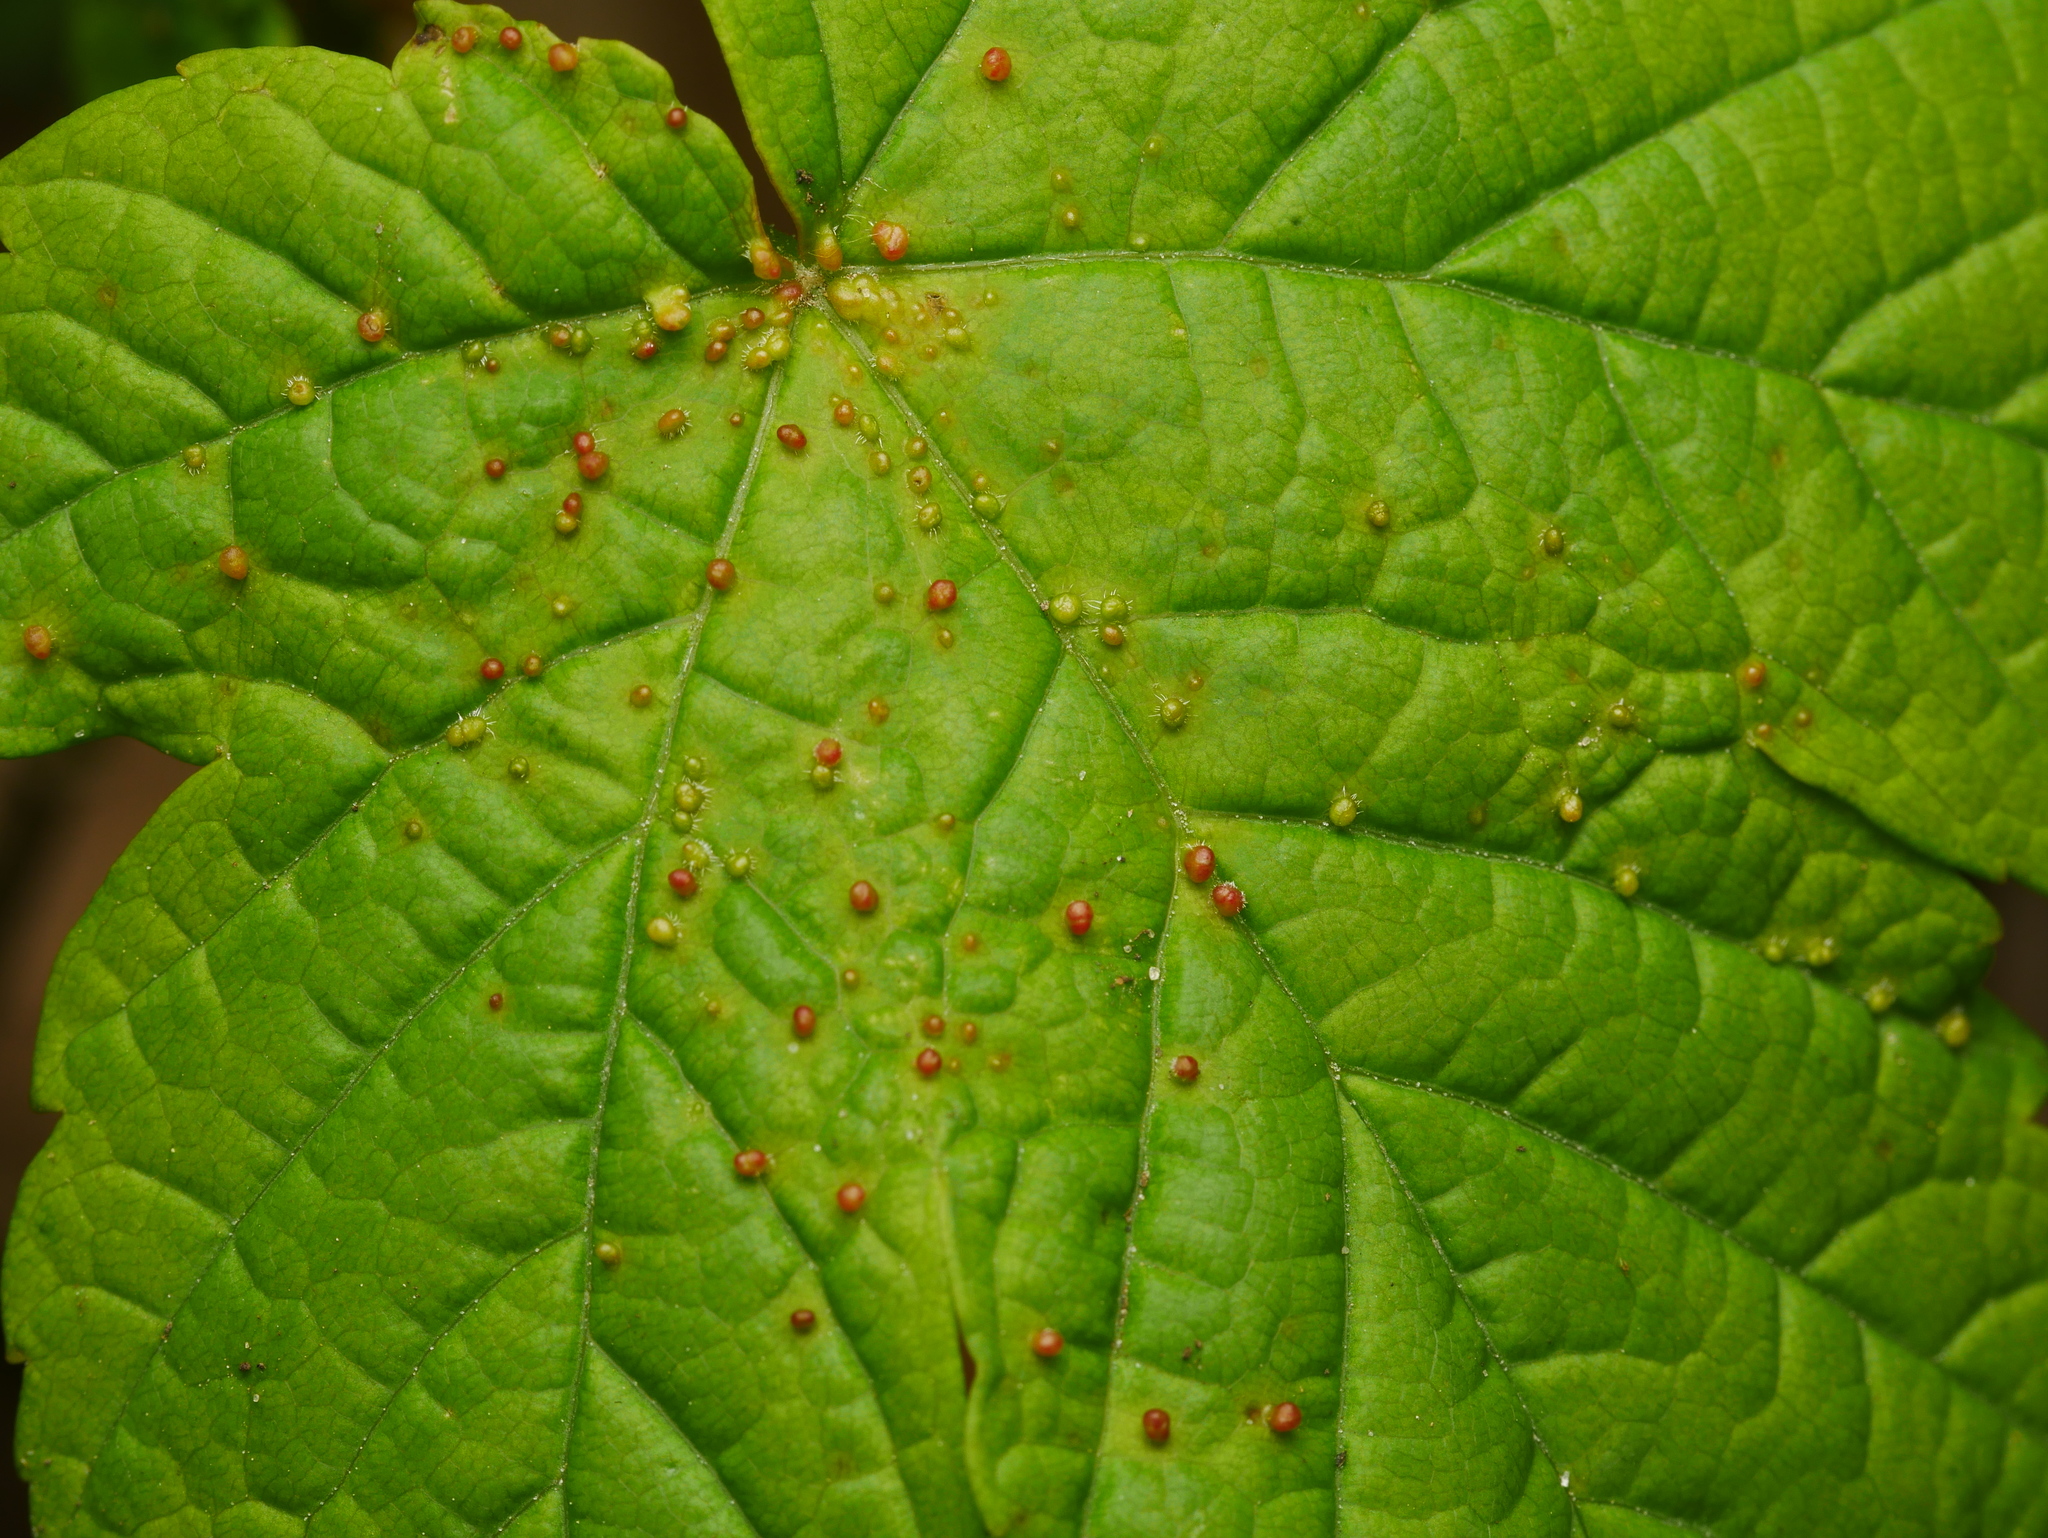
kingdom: Animalia
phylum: Arthropoda
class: Arachnida
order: Trombidiformes
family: Eriophyidae
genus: Aceria
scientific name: Aceria cephaloneus
